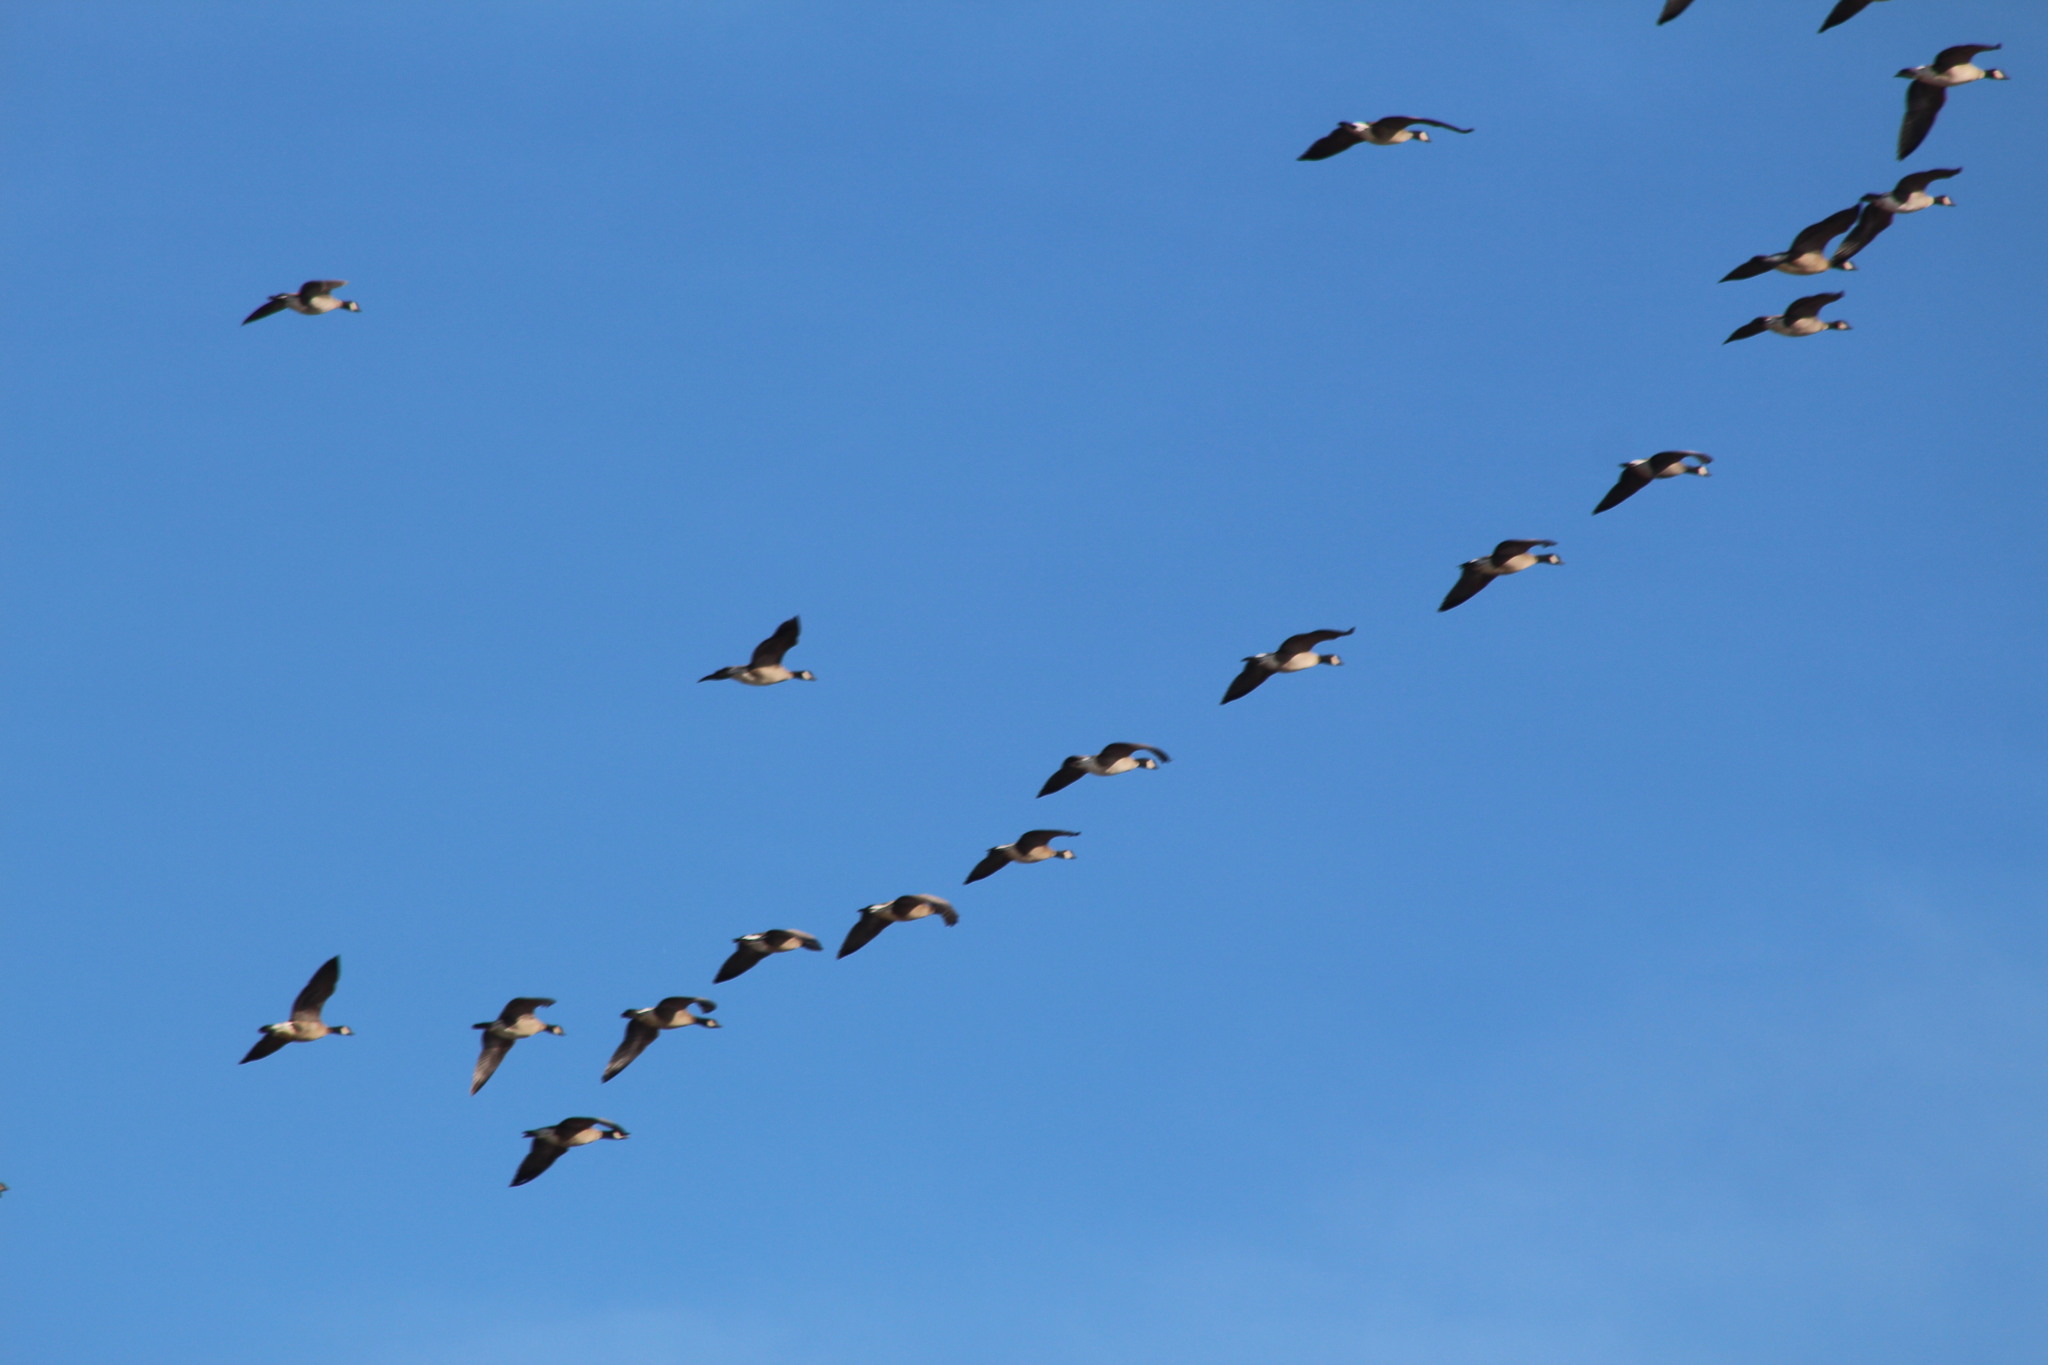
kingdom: Animalia
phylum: Chordata
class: Aves
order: Anseriformes
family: Anatidae
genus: Branta
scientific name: Branta canadensis
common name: Canada goose
